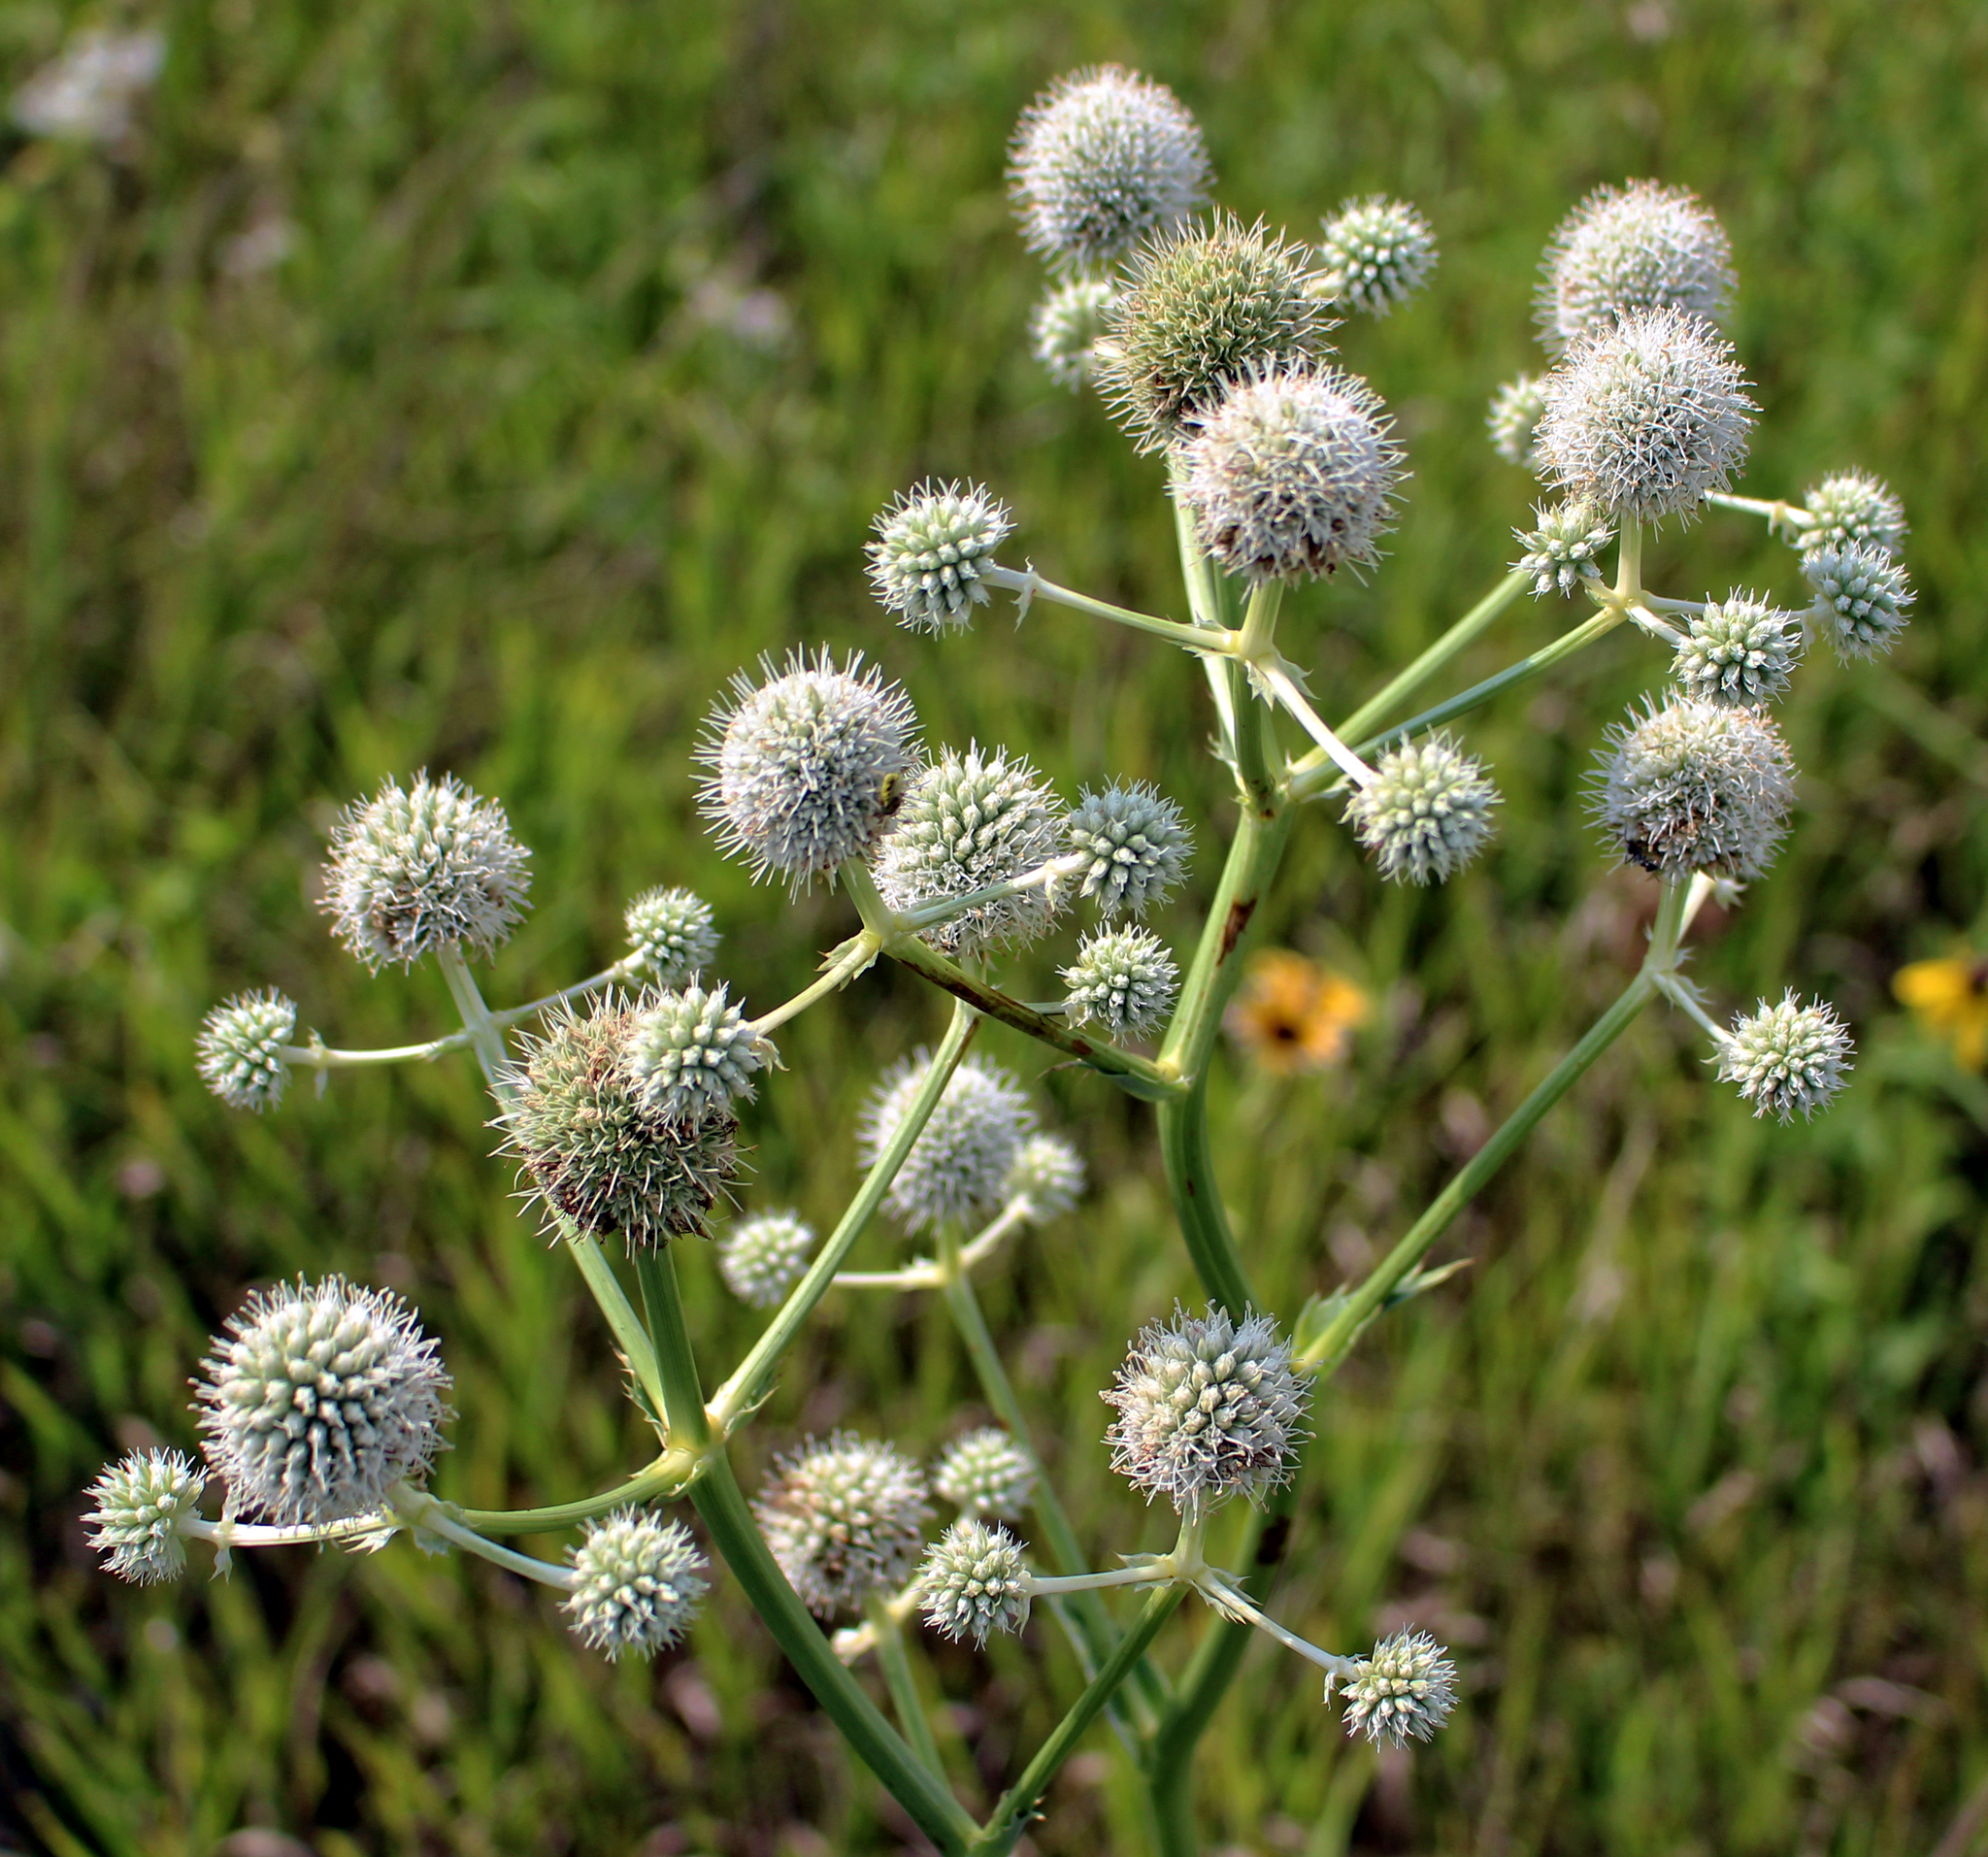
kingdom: Plantae
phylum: Tracheophyta
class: Magnoliopsida
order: Apiales
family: Apiaceae
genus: Eryngium
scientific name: Eryngium yuccifolium
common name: Button eryngo
